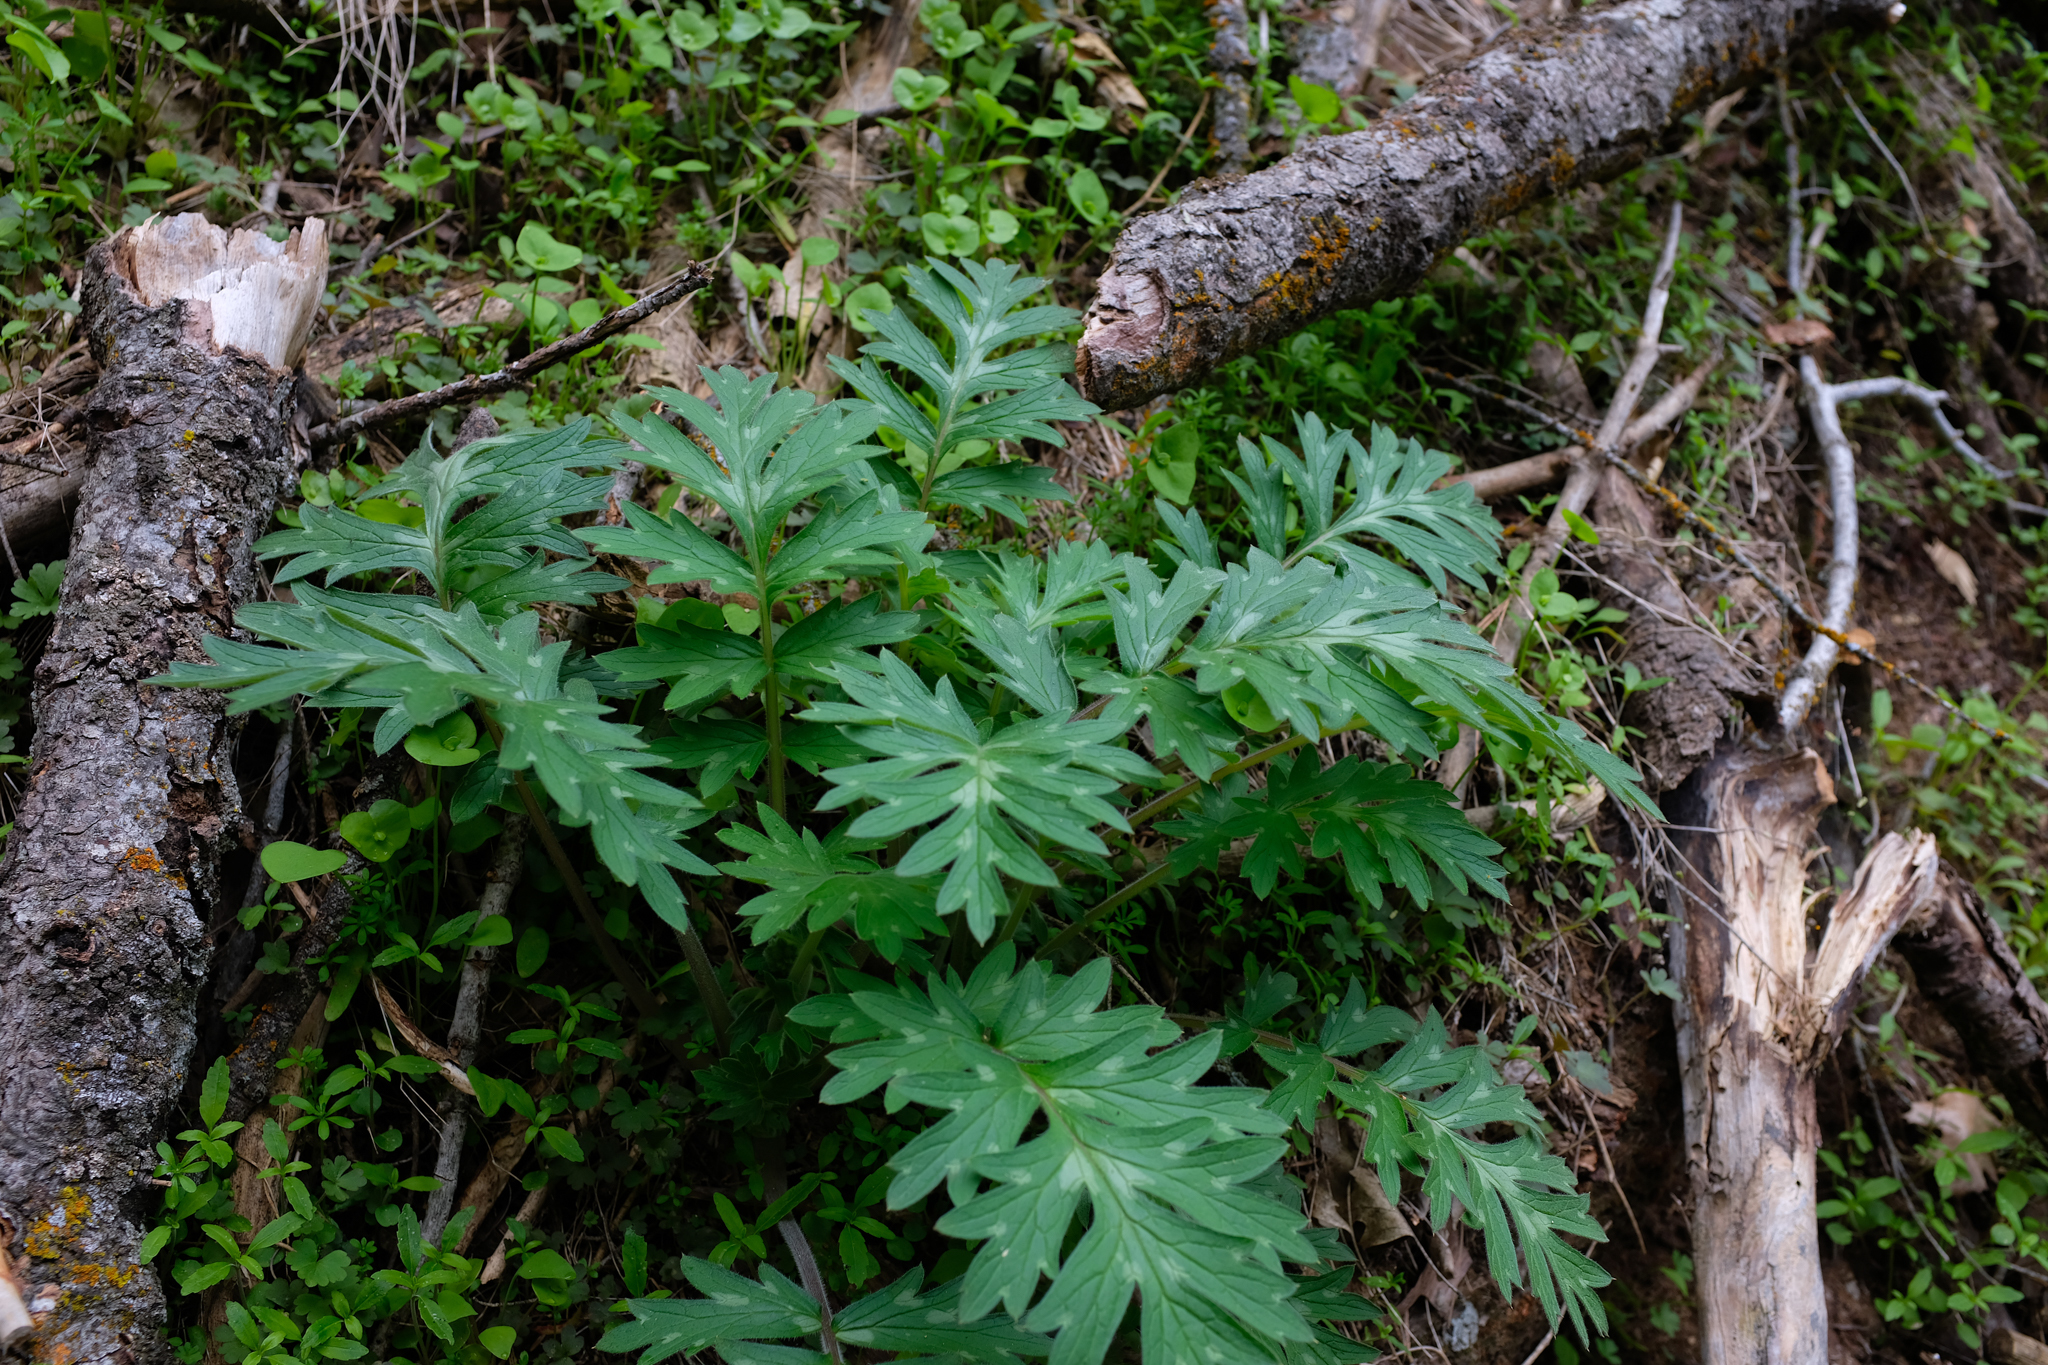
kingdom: Plantae
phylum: Tracheophyta
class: Magnoliopsida
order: Boraginales
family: Hydrophyllaceae
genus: Hydrophyllum
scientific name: Hydrophyllum occidentale
